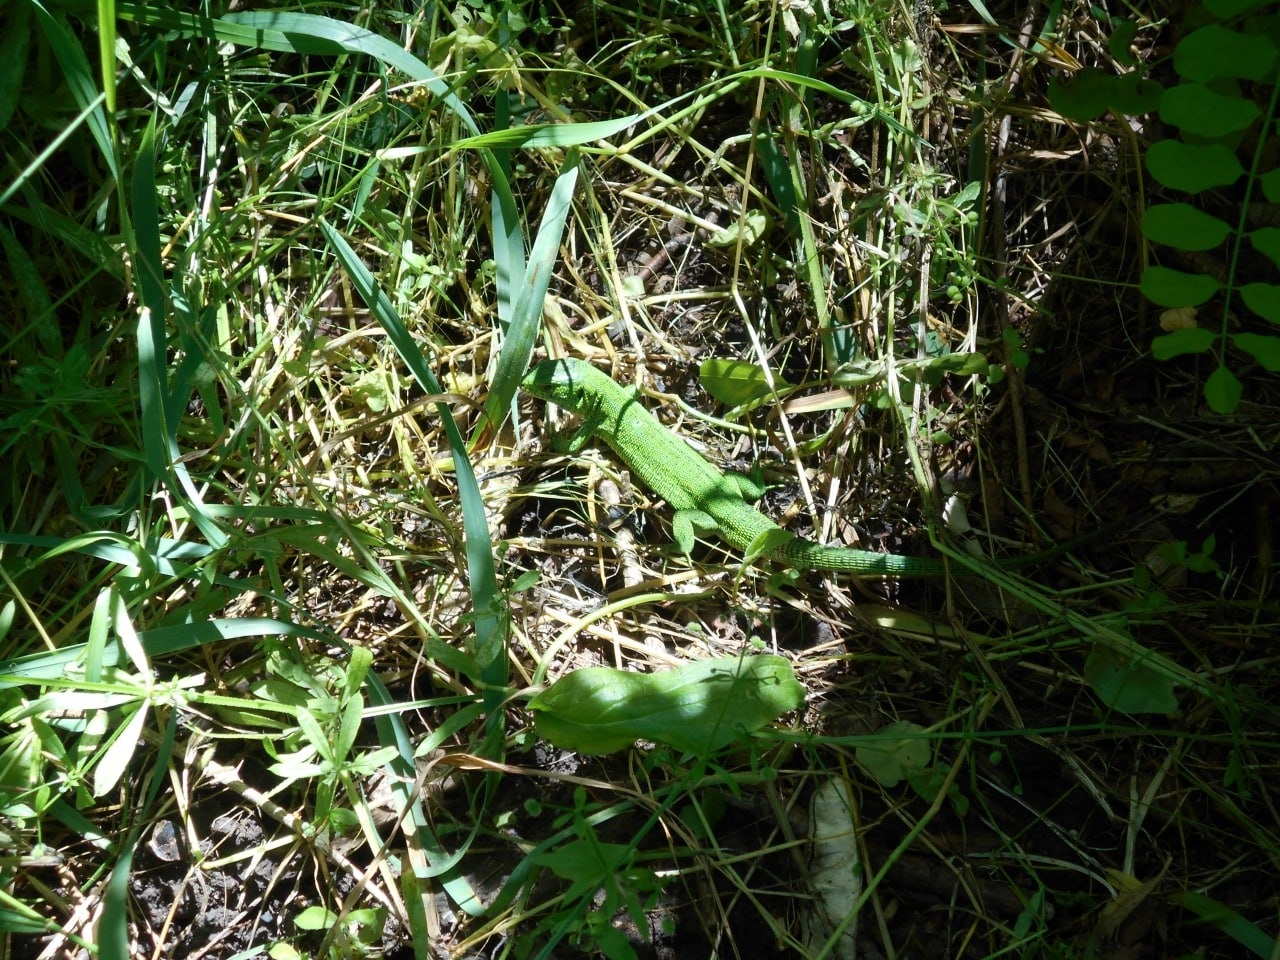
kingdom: Animalia
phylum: Chordata
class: Squamata
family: Lacertidae
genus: Lacerta
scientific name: Lacerta agilis
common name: Sand lizard
